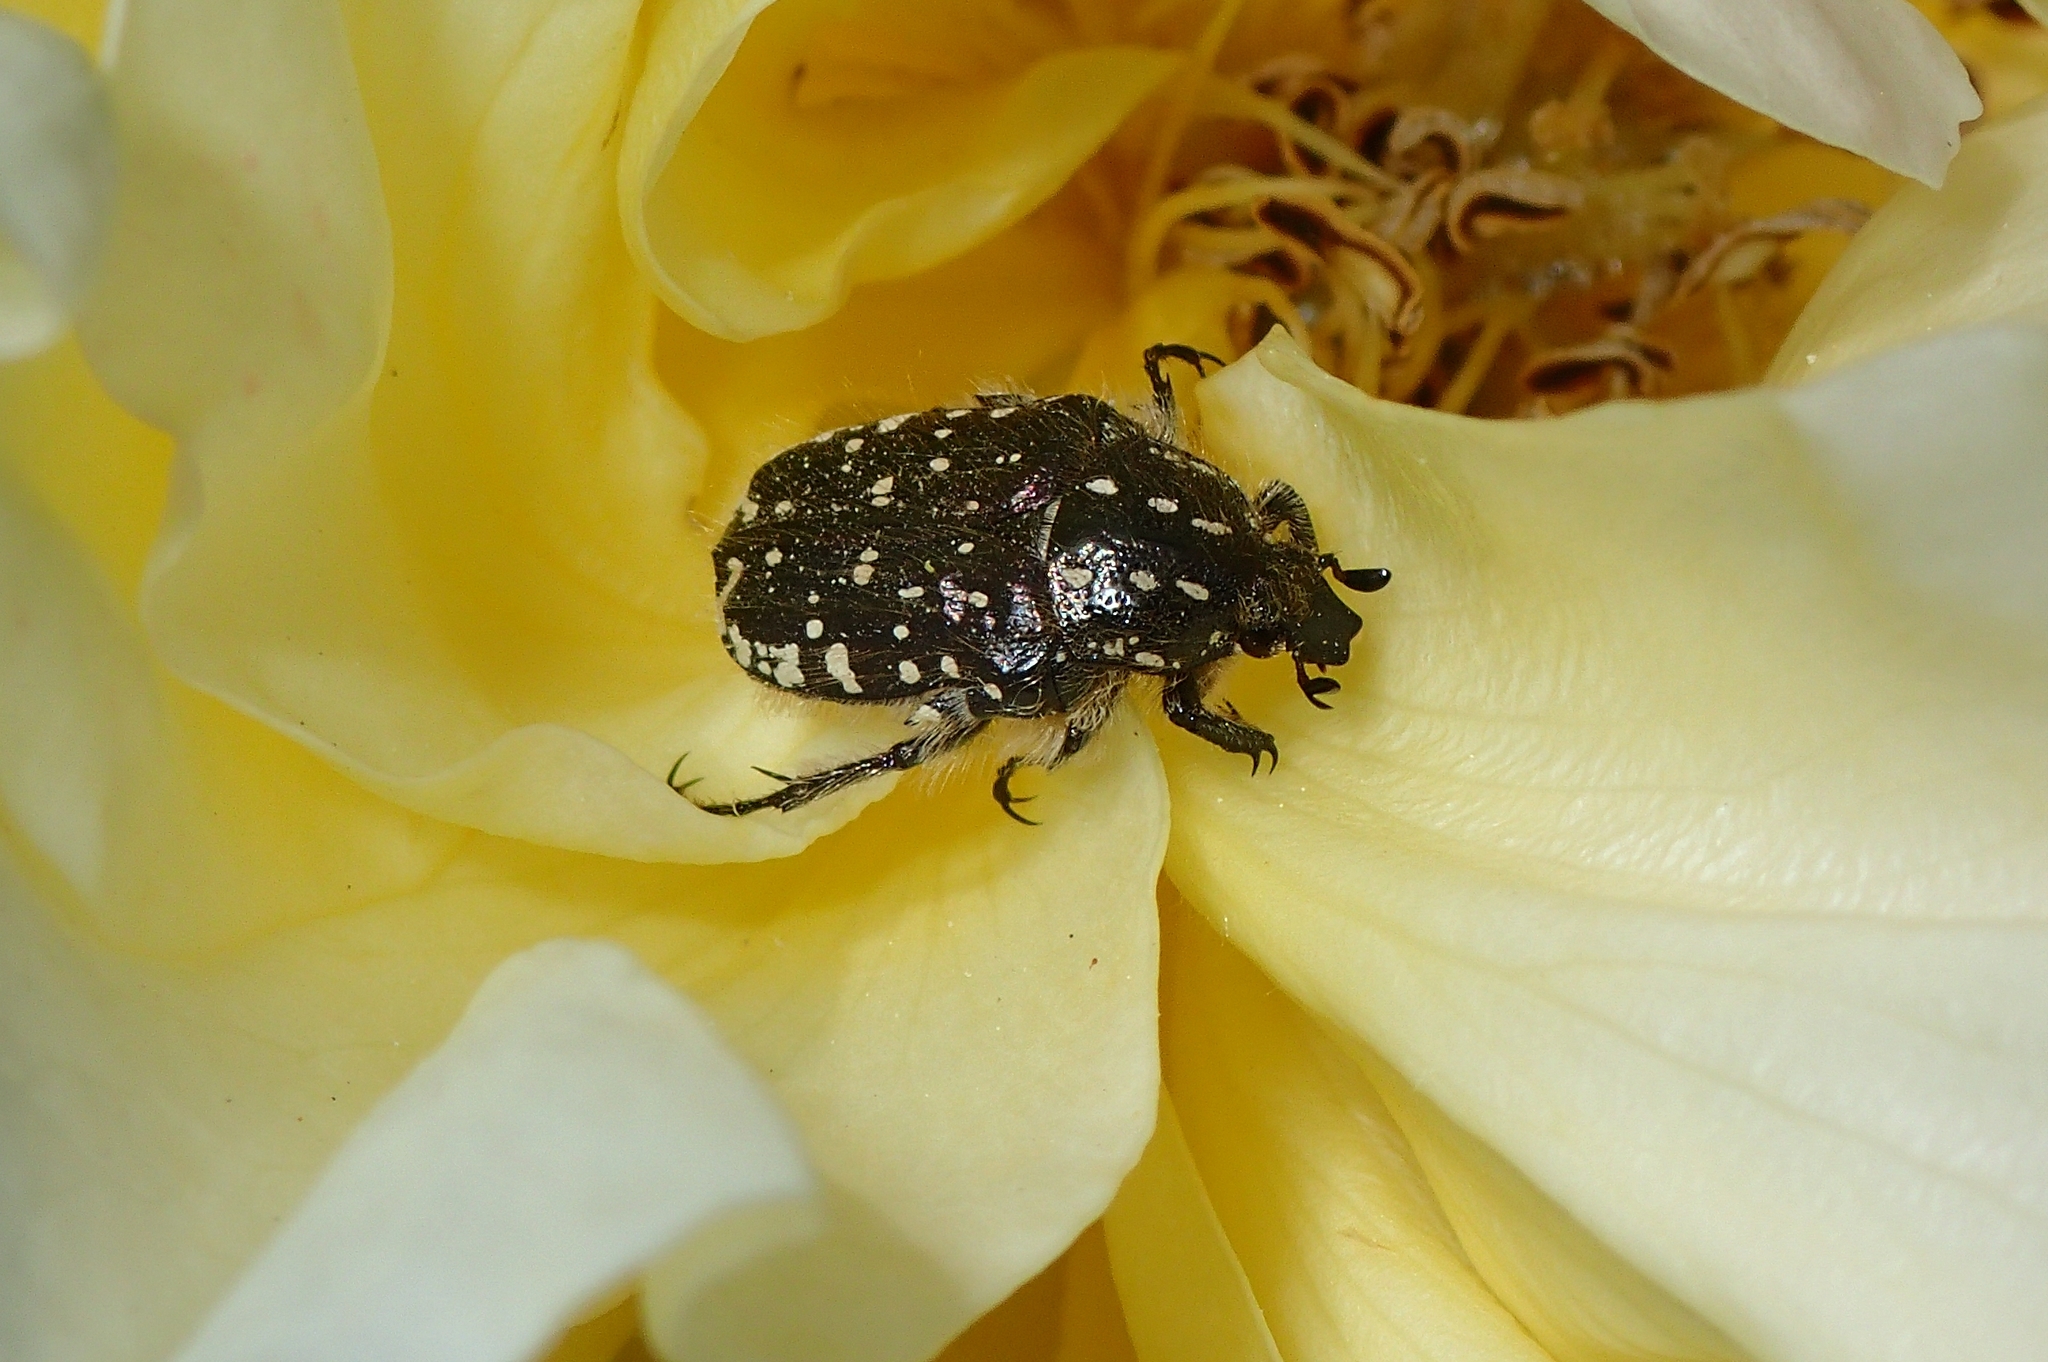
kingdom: Animalia
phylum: Arthropoda
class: Insecta
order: Coleoptera
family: Scarabaeidae
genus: Oxythyrea
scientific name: Oxythyrea funesta
